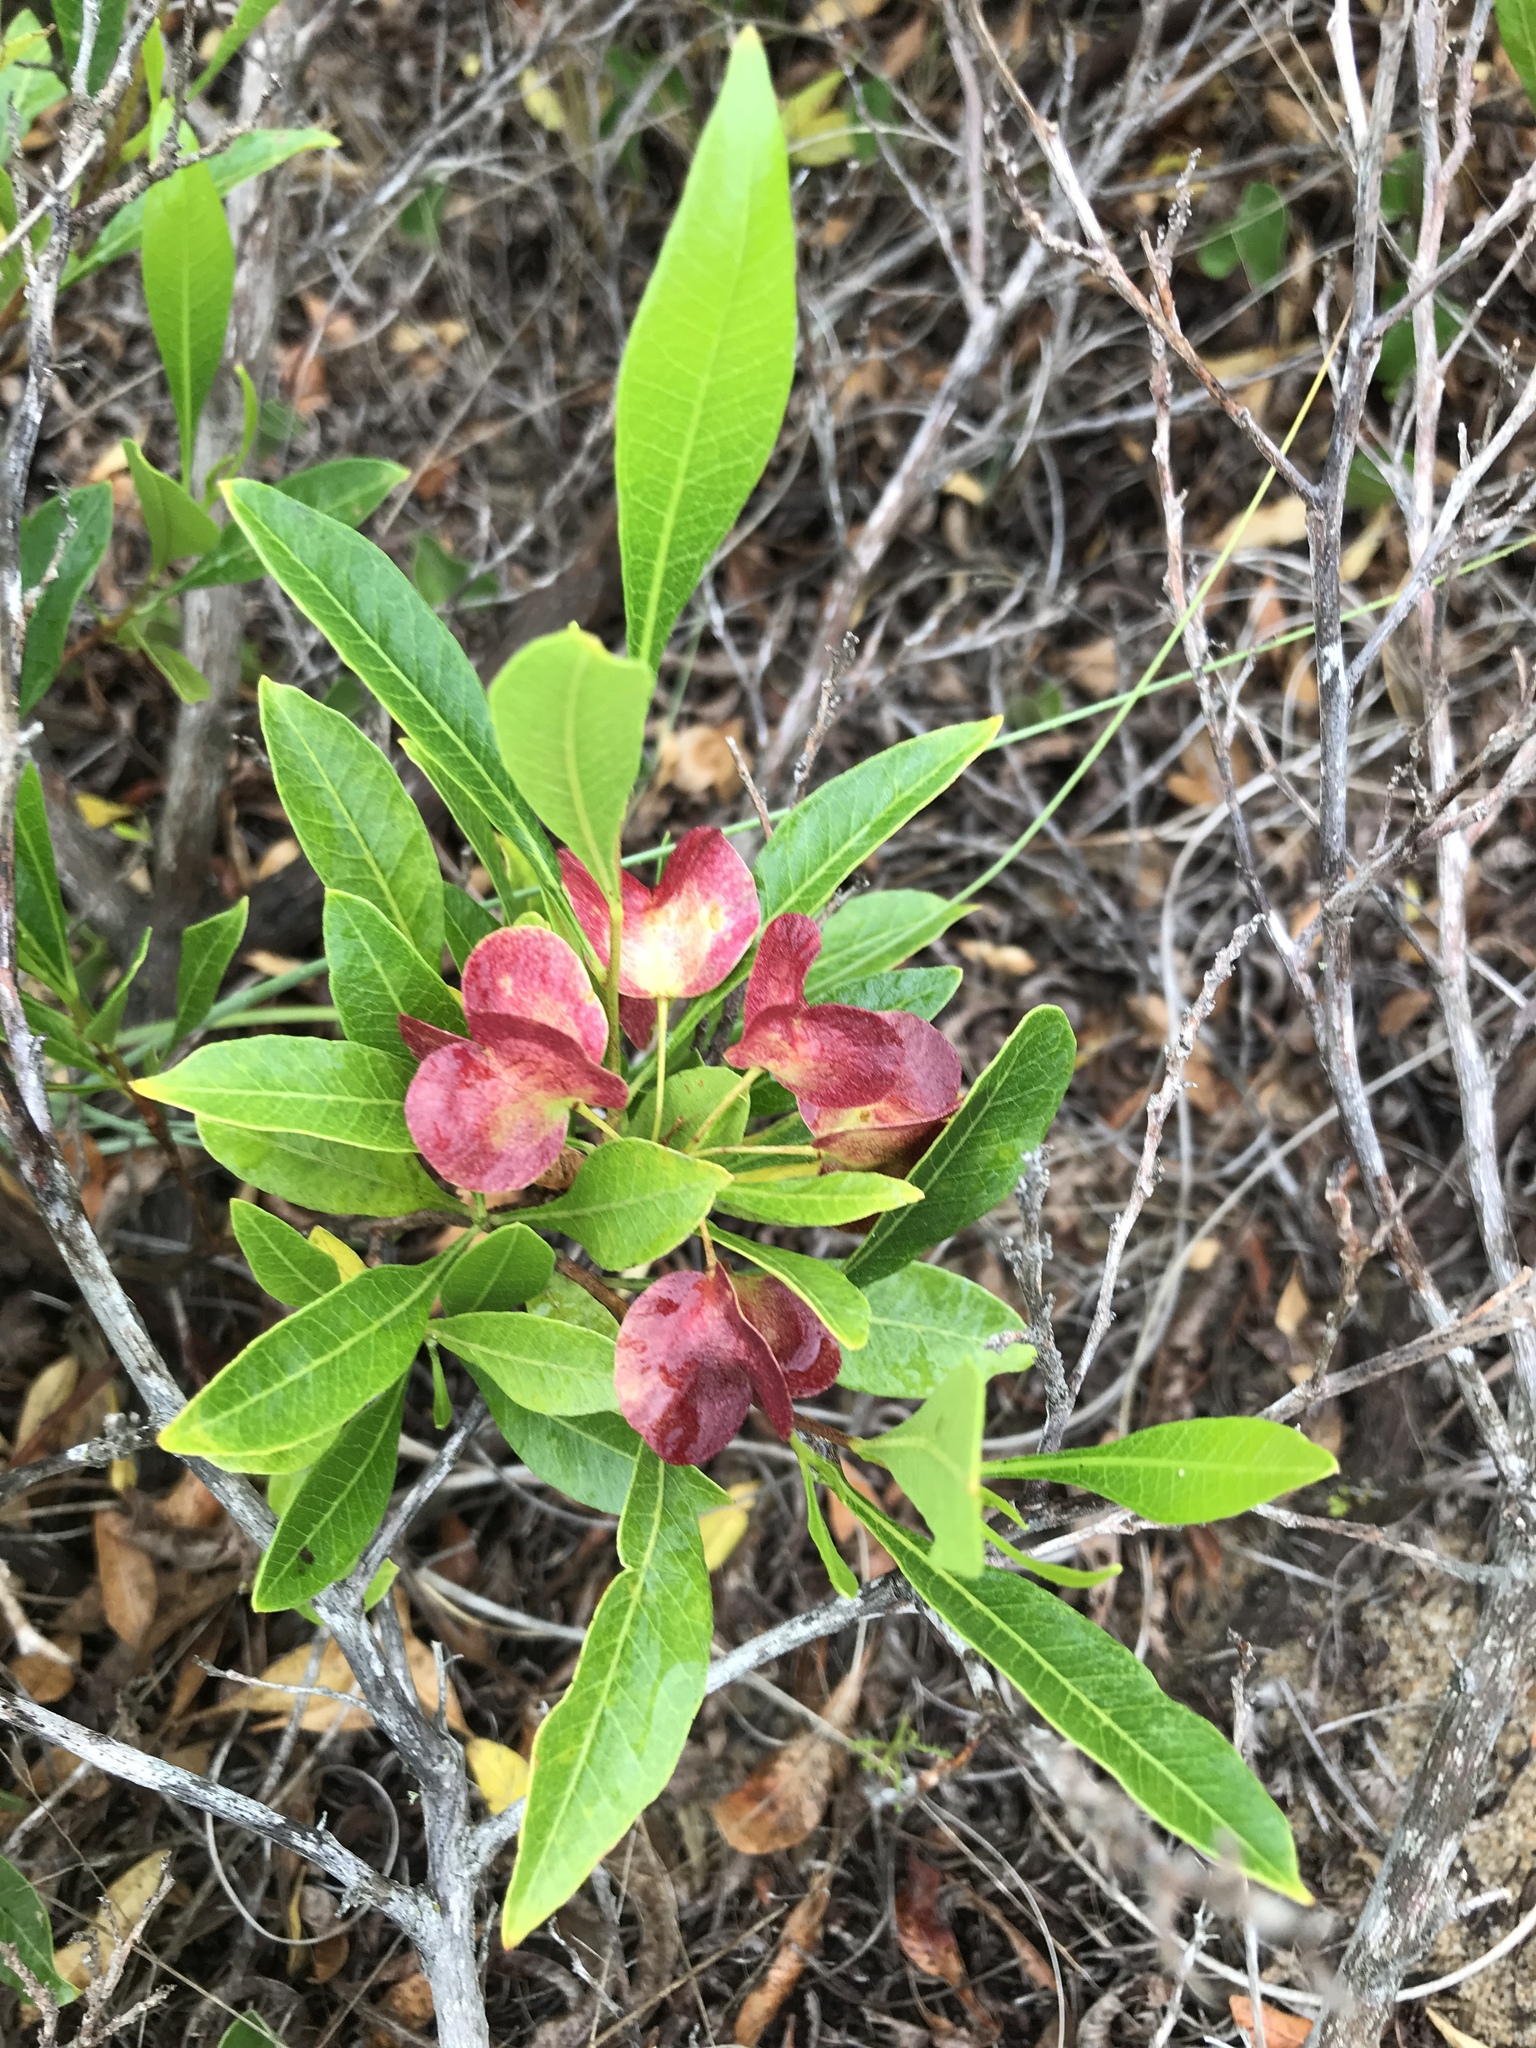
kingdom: Plantae
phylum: Tracheophyta
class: Magnoliopsida
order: Sapindales
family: Sapindaceae
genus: Dodonaea
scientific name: Dodonaea viscosa
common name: Hopbush
